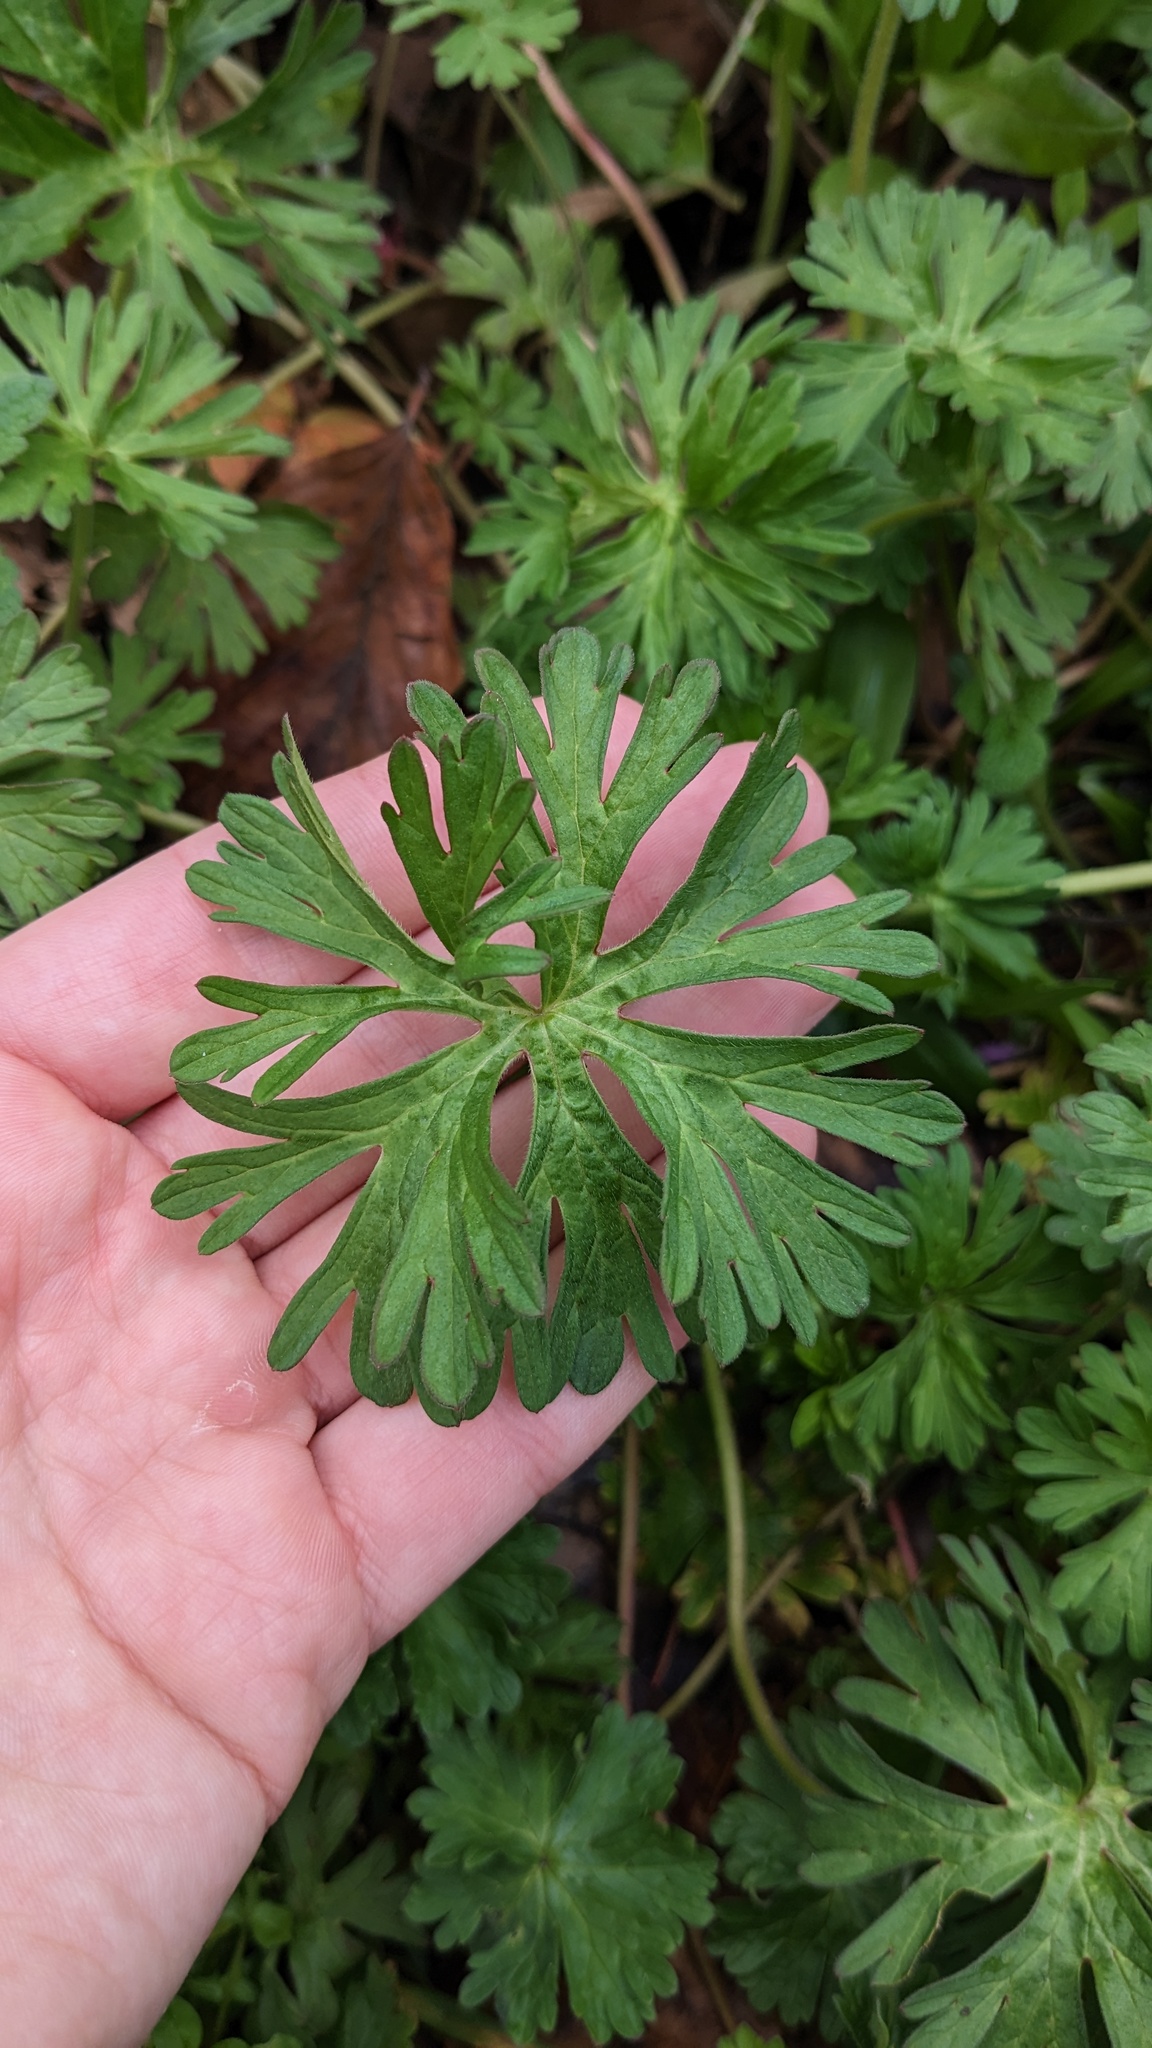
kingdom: Plantae
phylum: Tracheophyta
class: Magnoliopsida
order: Geraniales
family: Geraniaceae
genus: Geranium
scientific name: Geranium dissectum
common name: Cut-leaved crane's-bill
